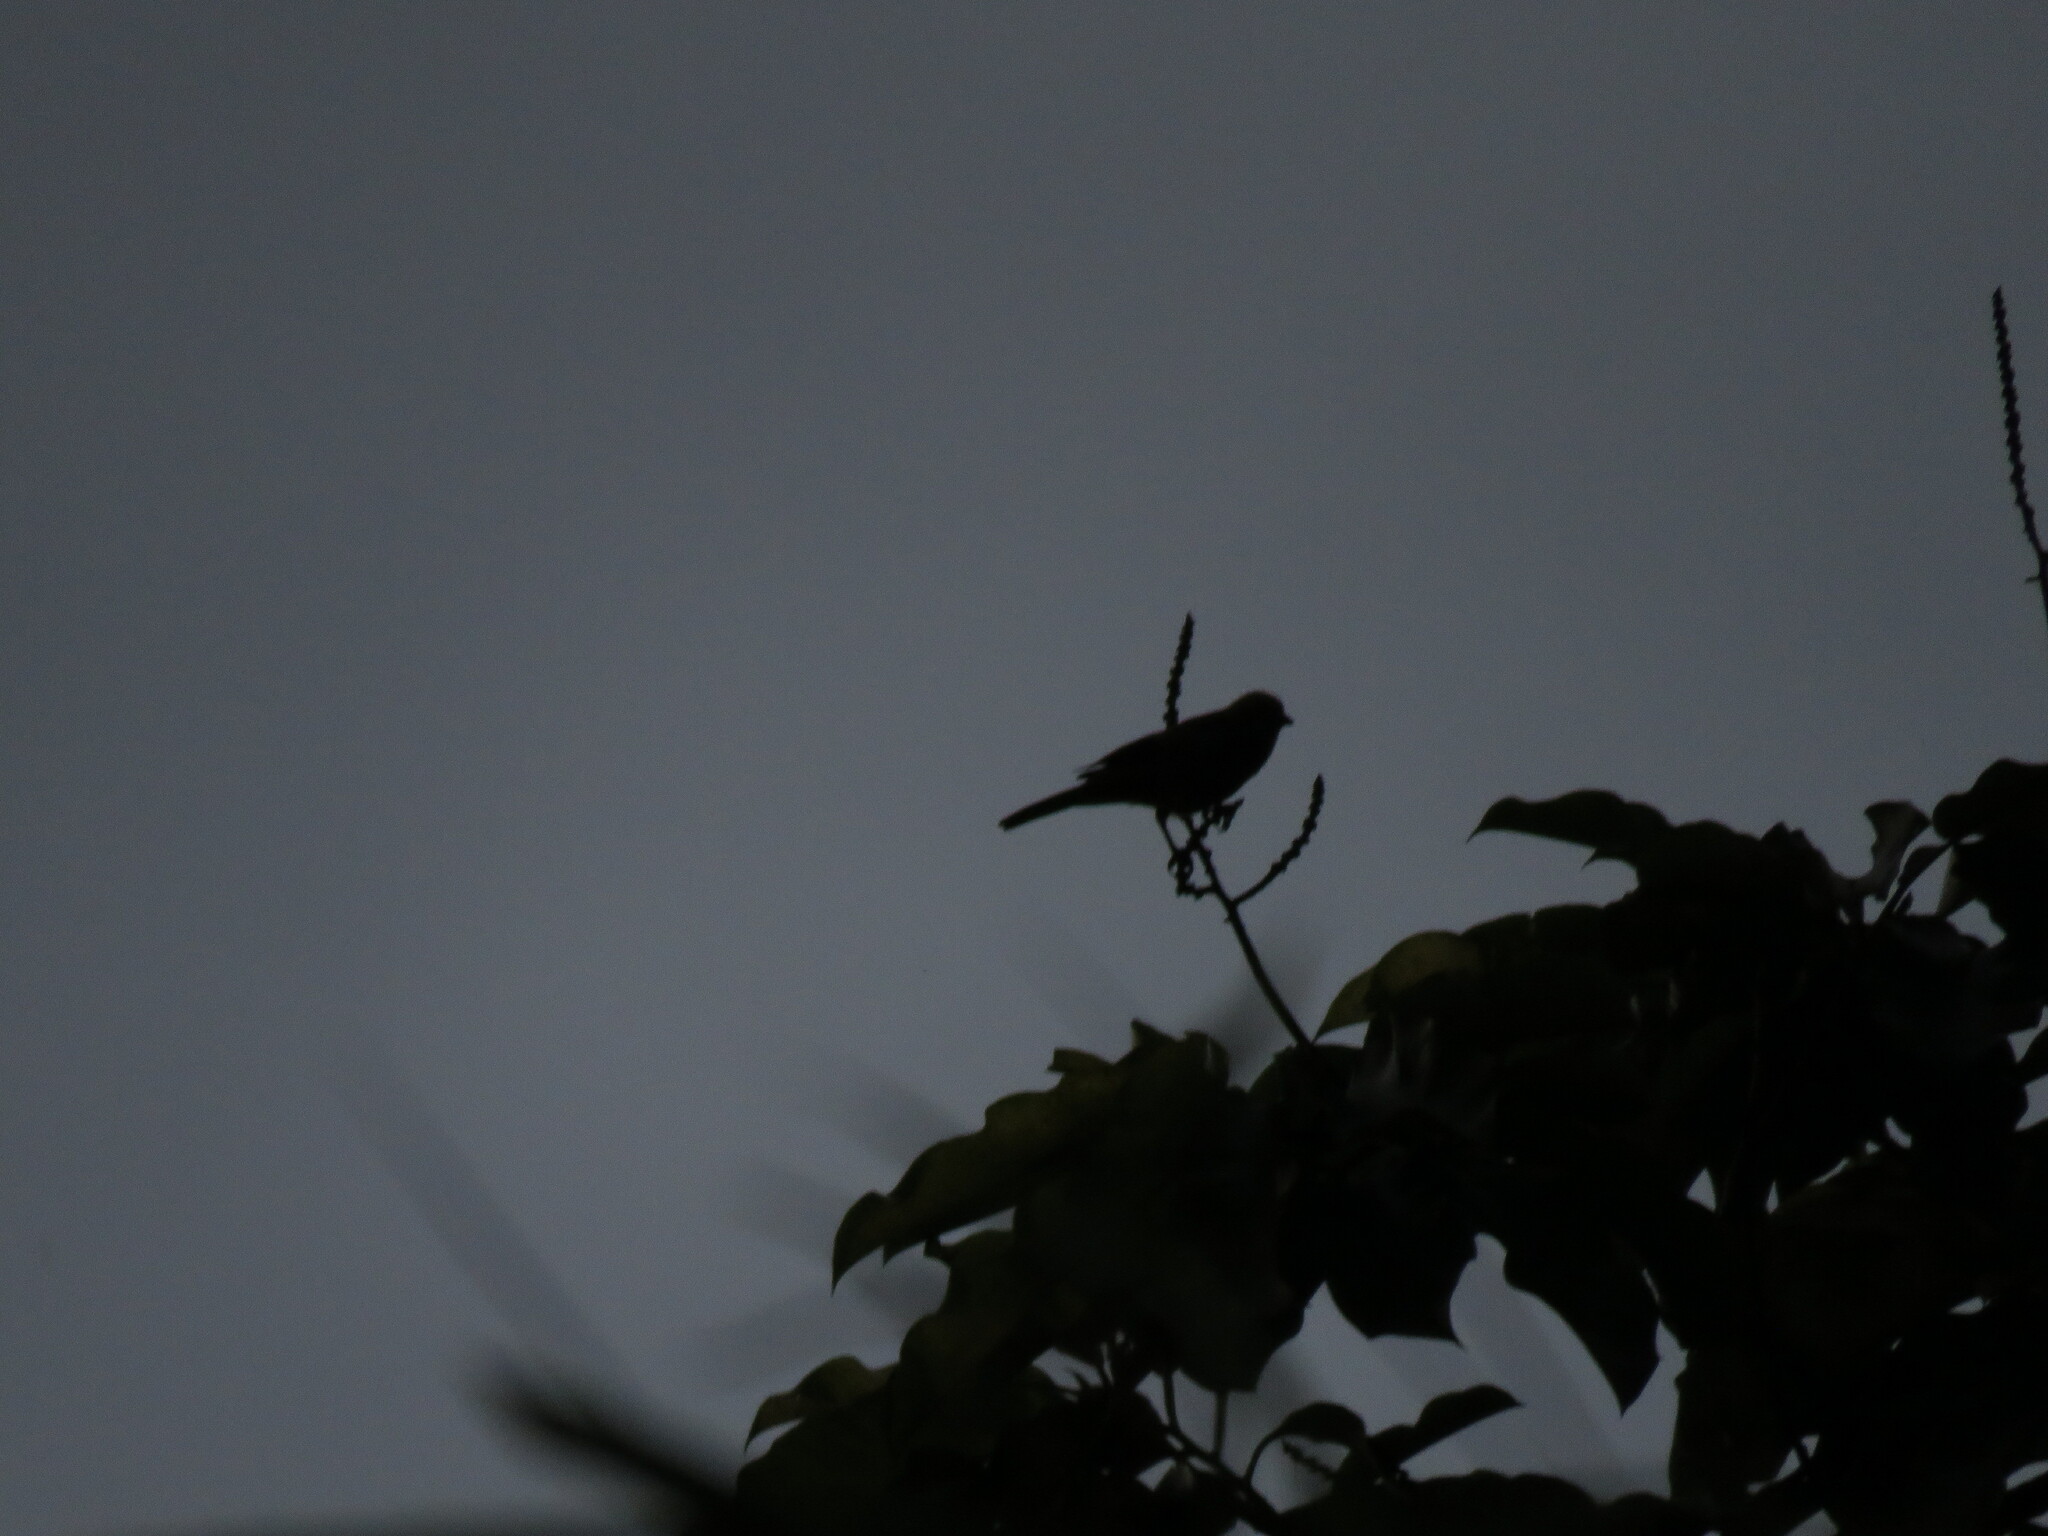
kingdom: Animalia
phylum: Chordata
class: Aves
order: Passeriformes
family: Thraupidae
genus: Thraupis
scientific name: Thraupis palmarum
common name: Palm tanager
